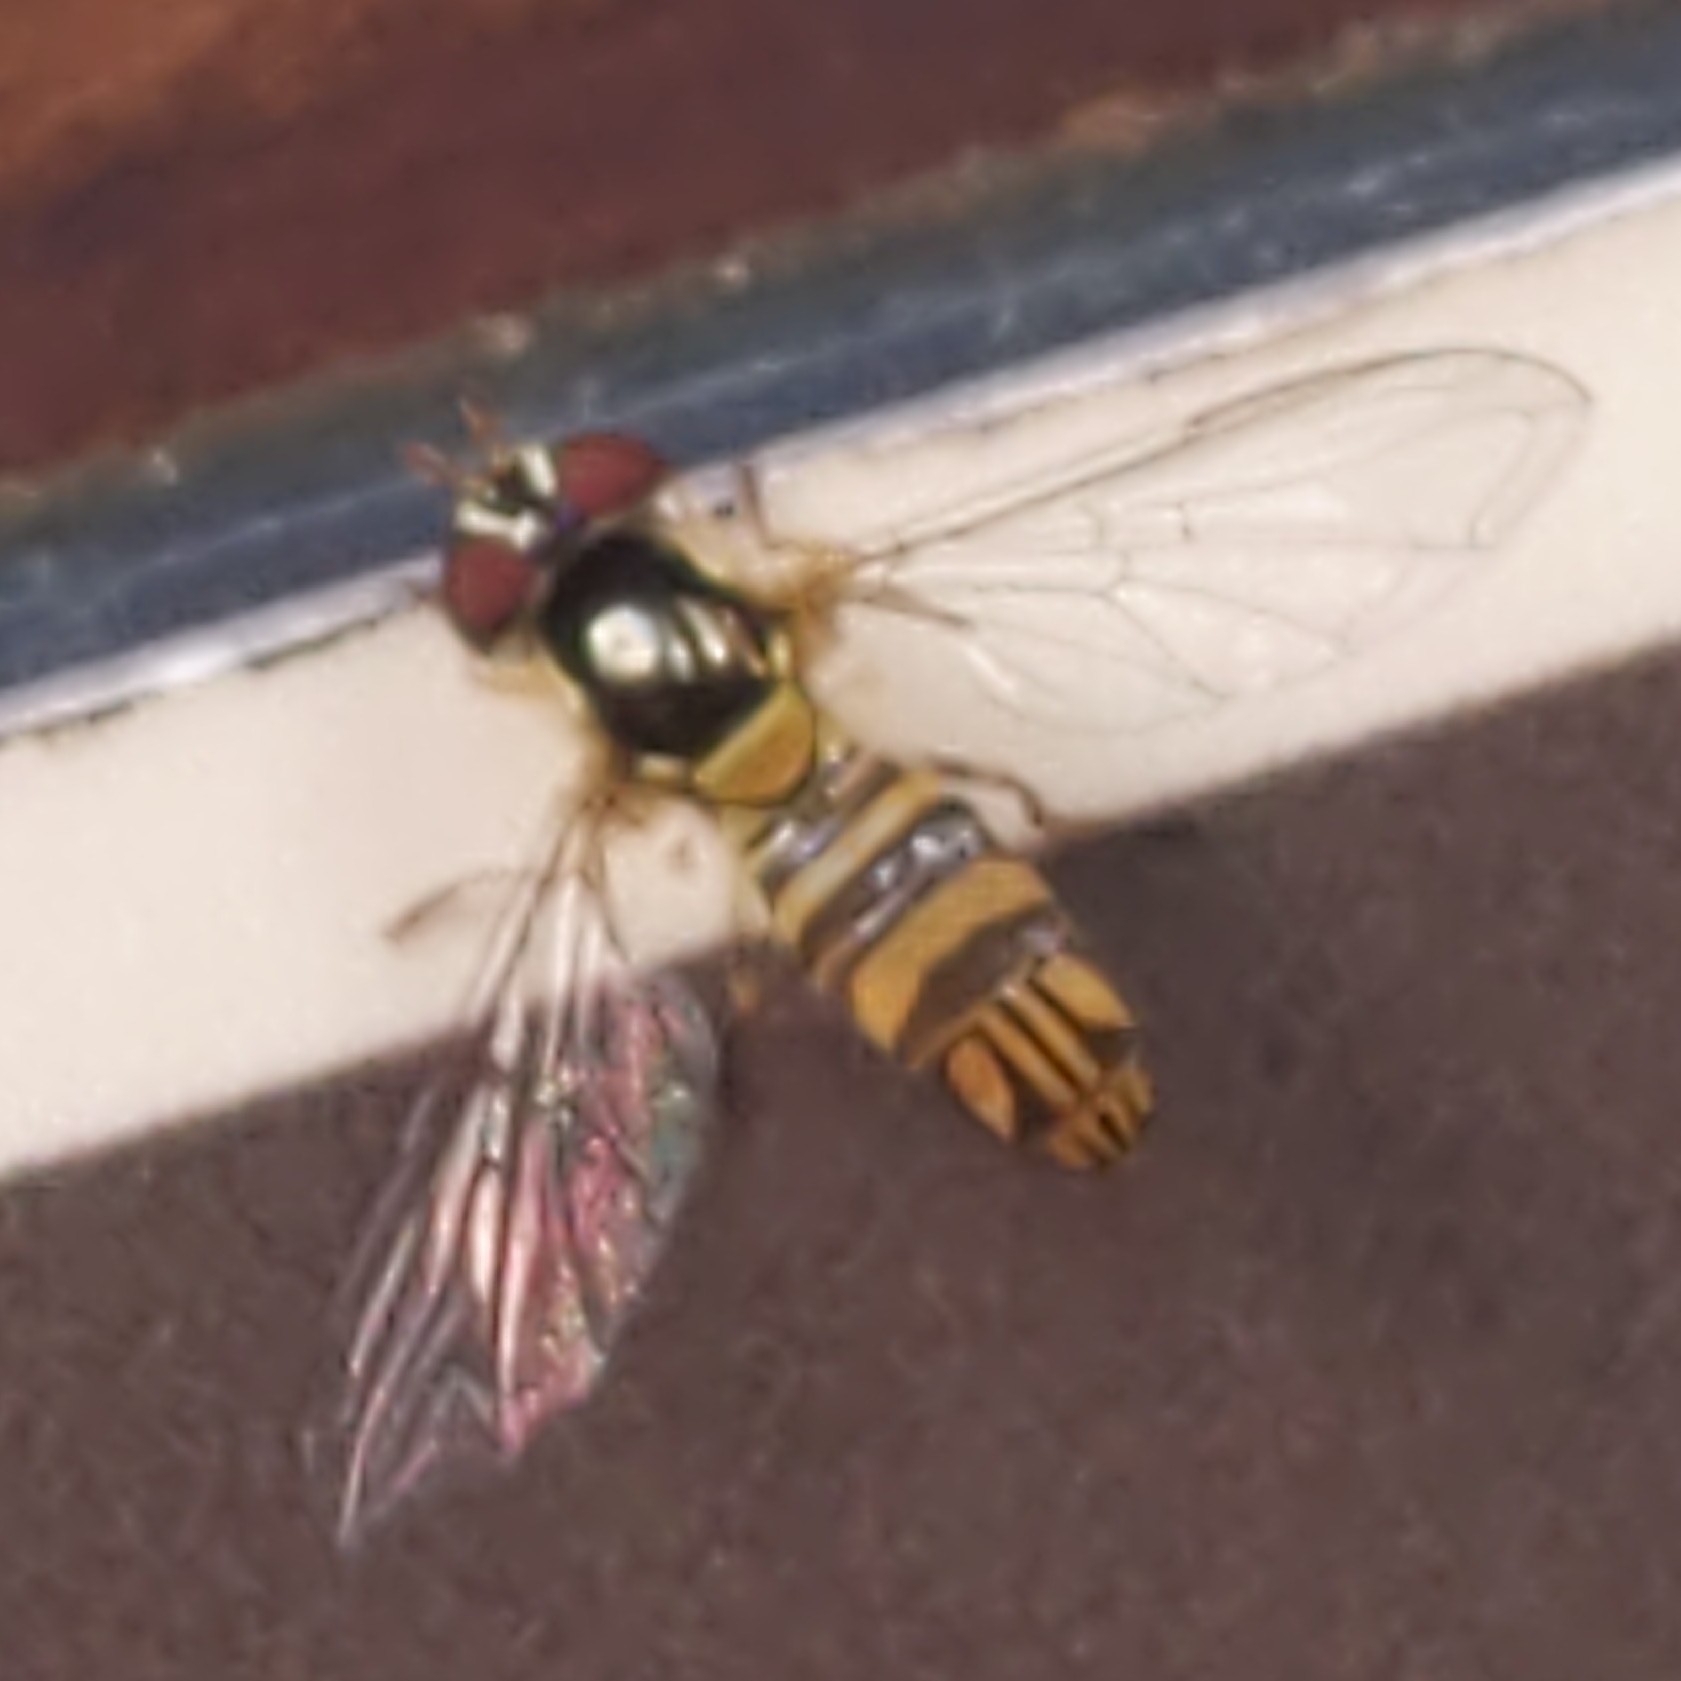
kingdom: Animalia
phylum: Arthropoda
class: Insecta
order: Diptera
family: Syrphidae
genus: Allograpta
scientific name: Allograpta obliqua
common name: Common oblique syrphid
